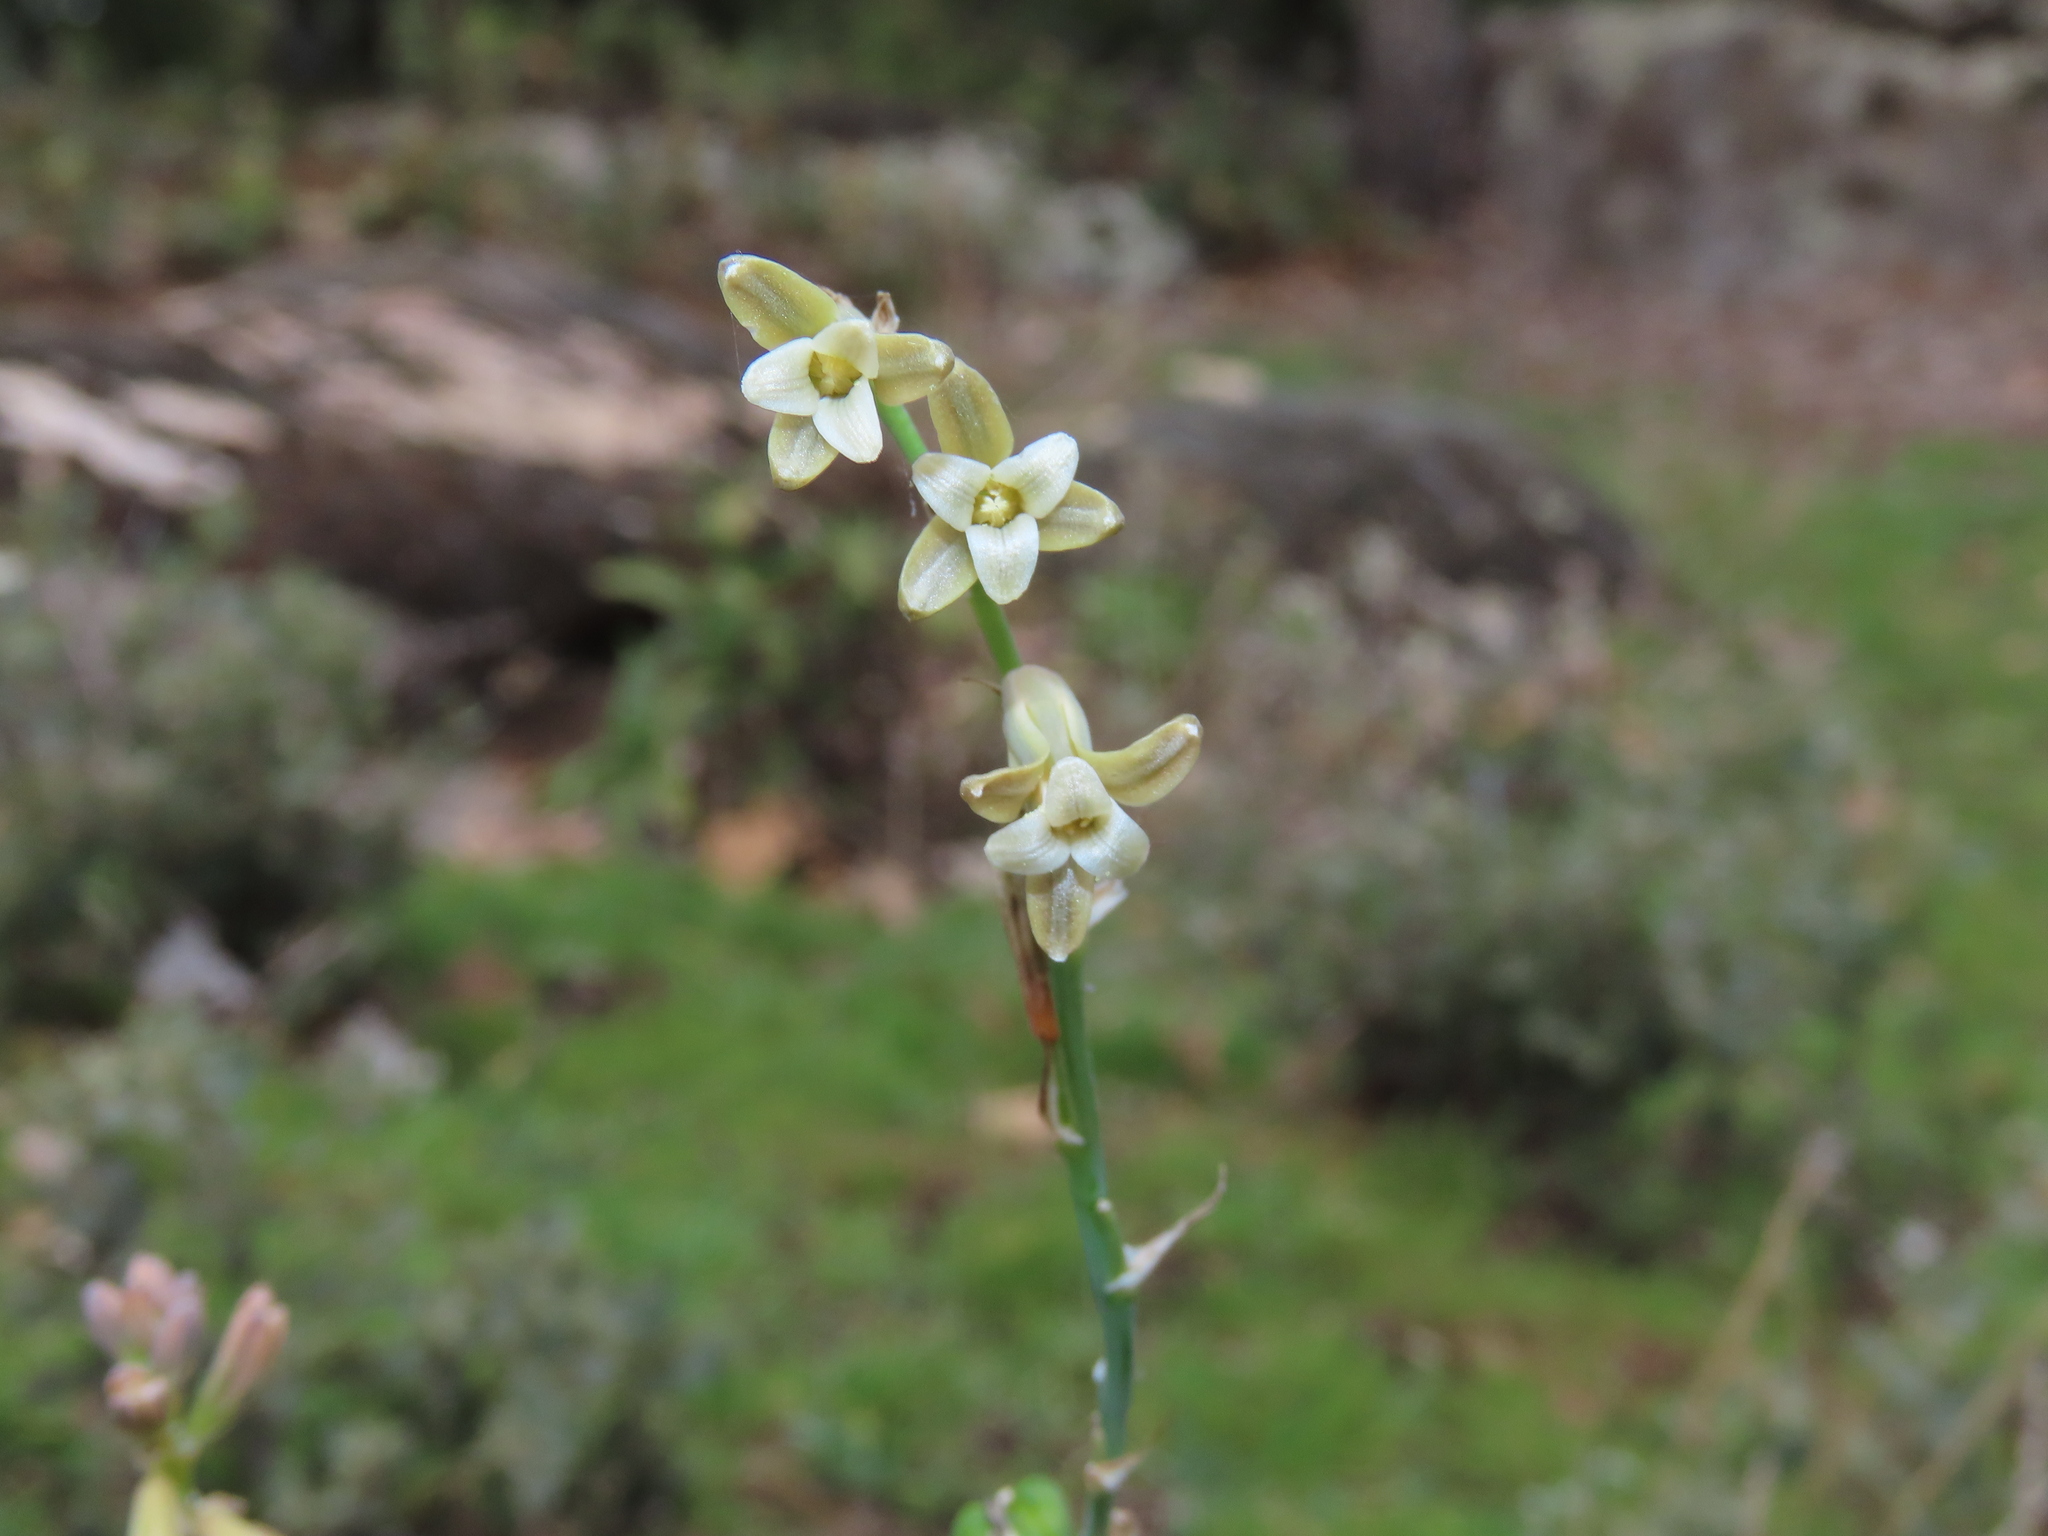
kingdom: Plantae
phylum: Tracheophyta
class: Liliopsida
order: Asparagales
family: Asparagaceae
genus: Dipcadi
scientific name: Dipcadi serotinum
